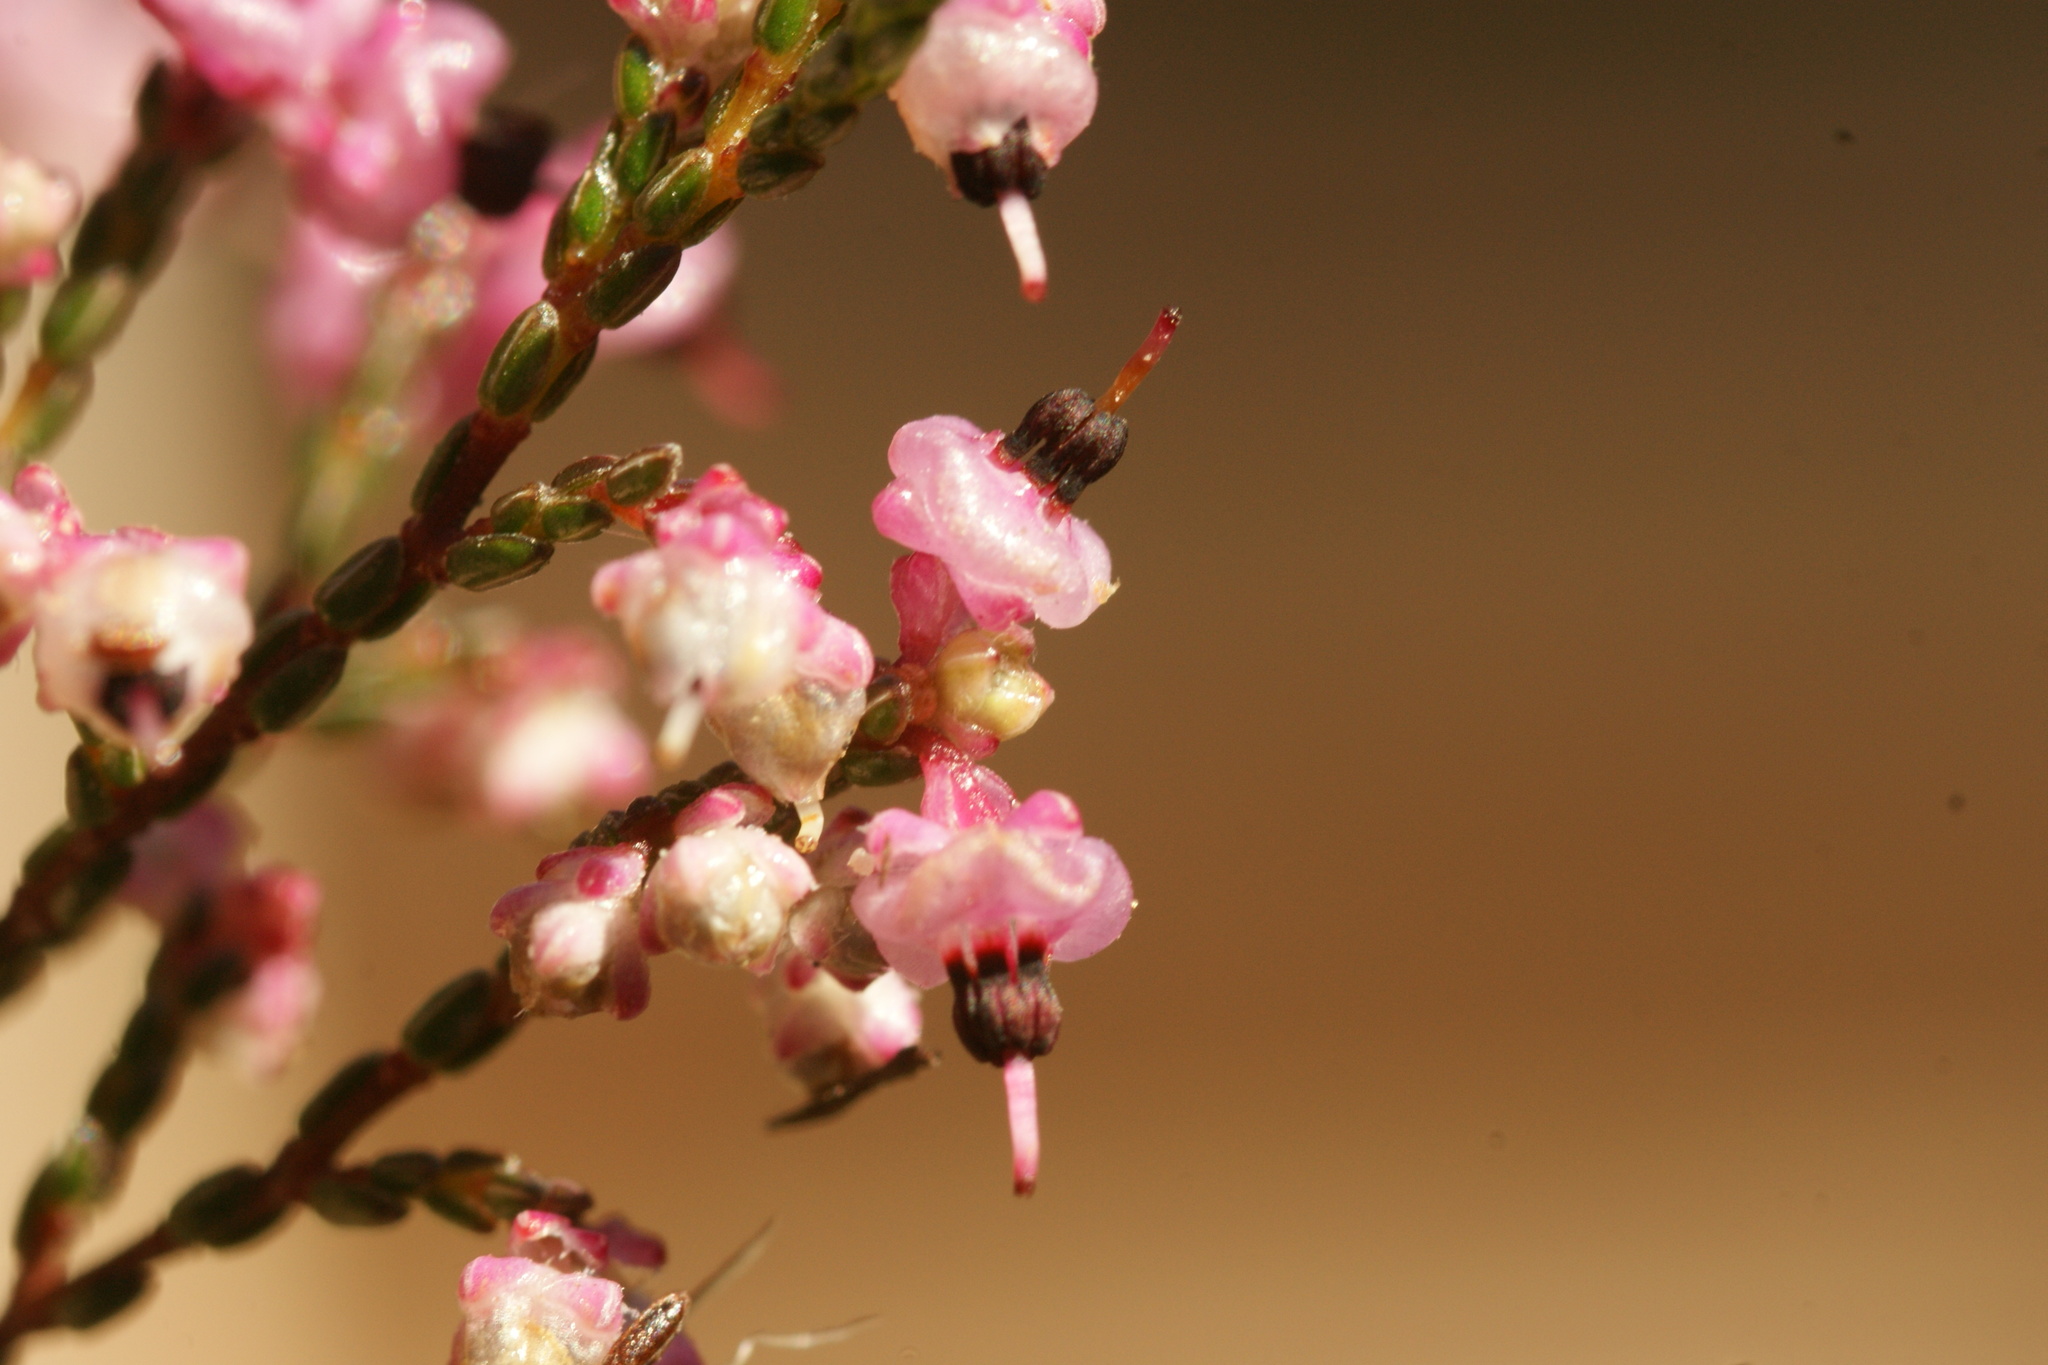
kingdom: Plantae
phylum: Tracheophyta
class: Magnoliopsida
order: Ericales
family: Ericaceae
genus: Erica
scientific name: Erica guthriei
